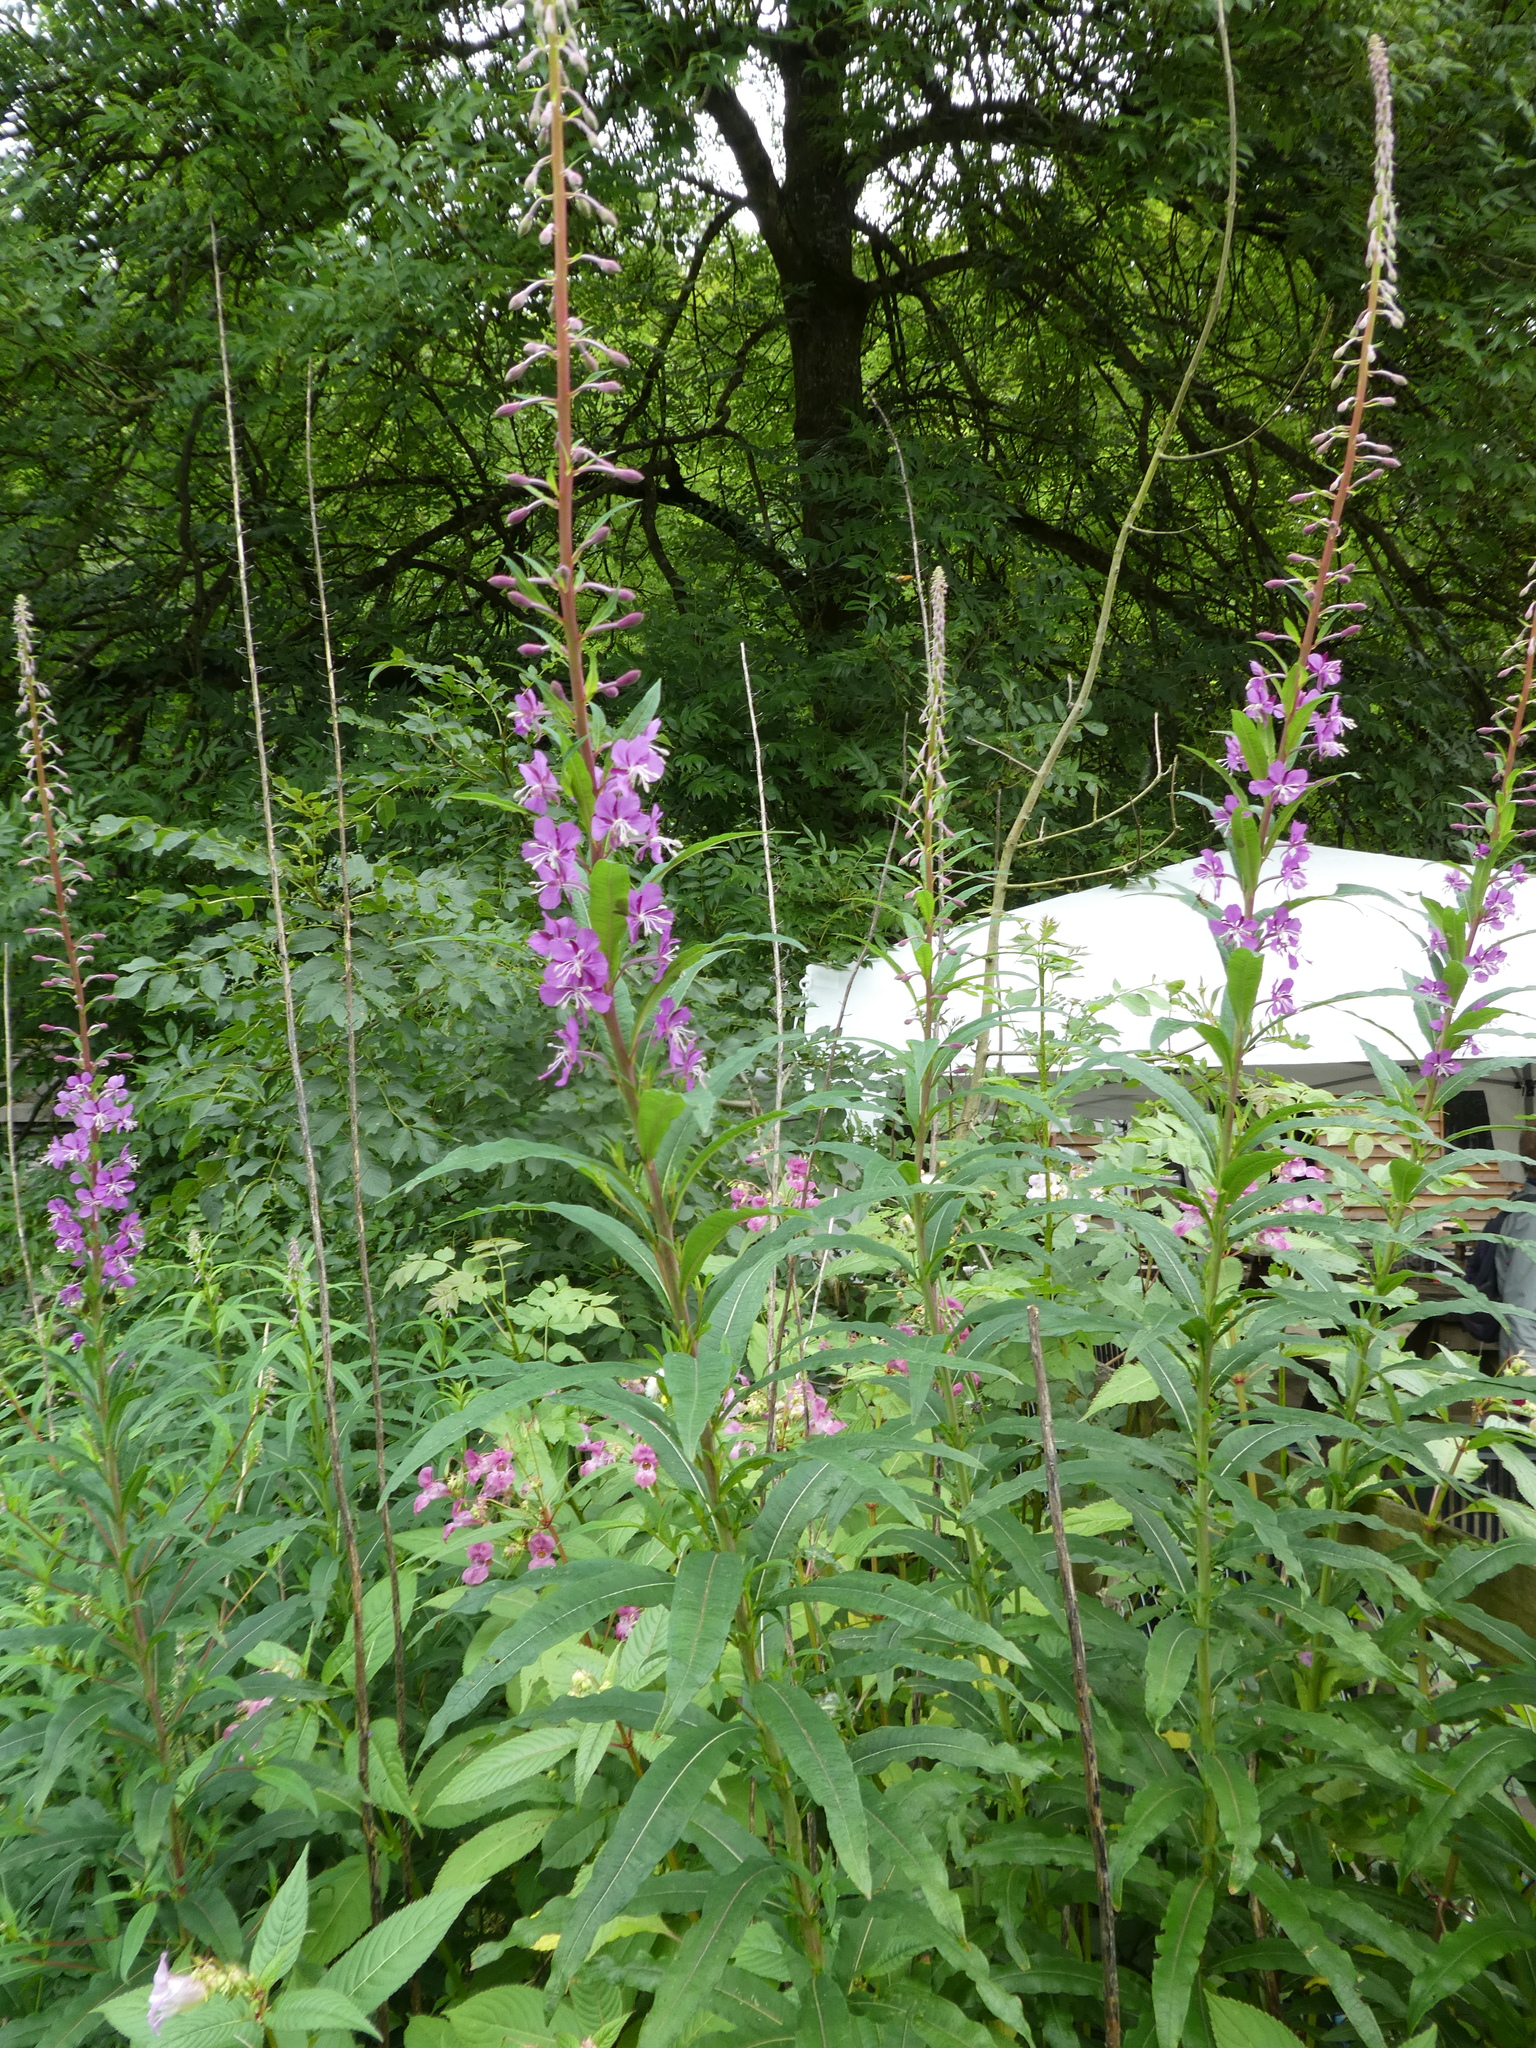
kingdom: Plantae
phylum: Tracheophyta
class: Magnoliopsida
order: Myrtales
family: Onagraceae
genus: Chamaenerion
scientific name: Chamaenerion angustifolium
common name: Fireweed
